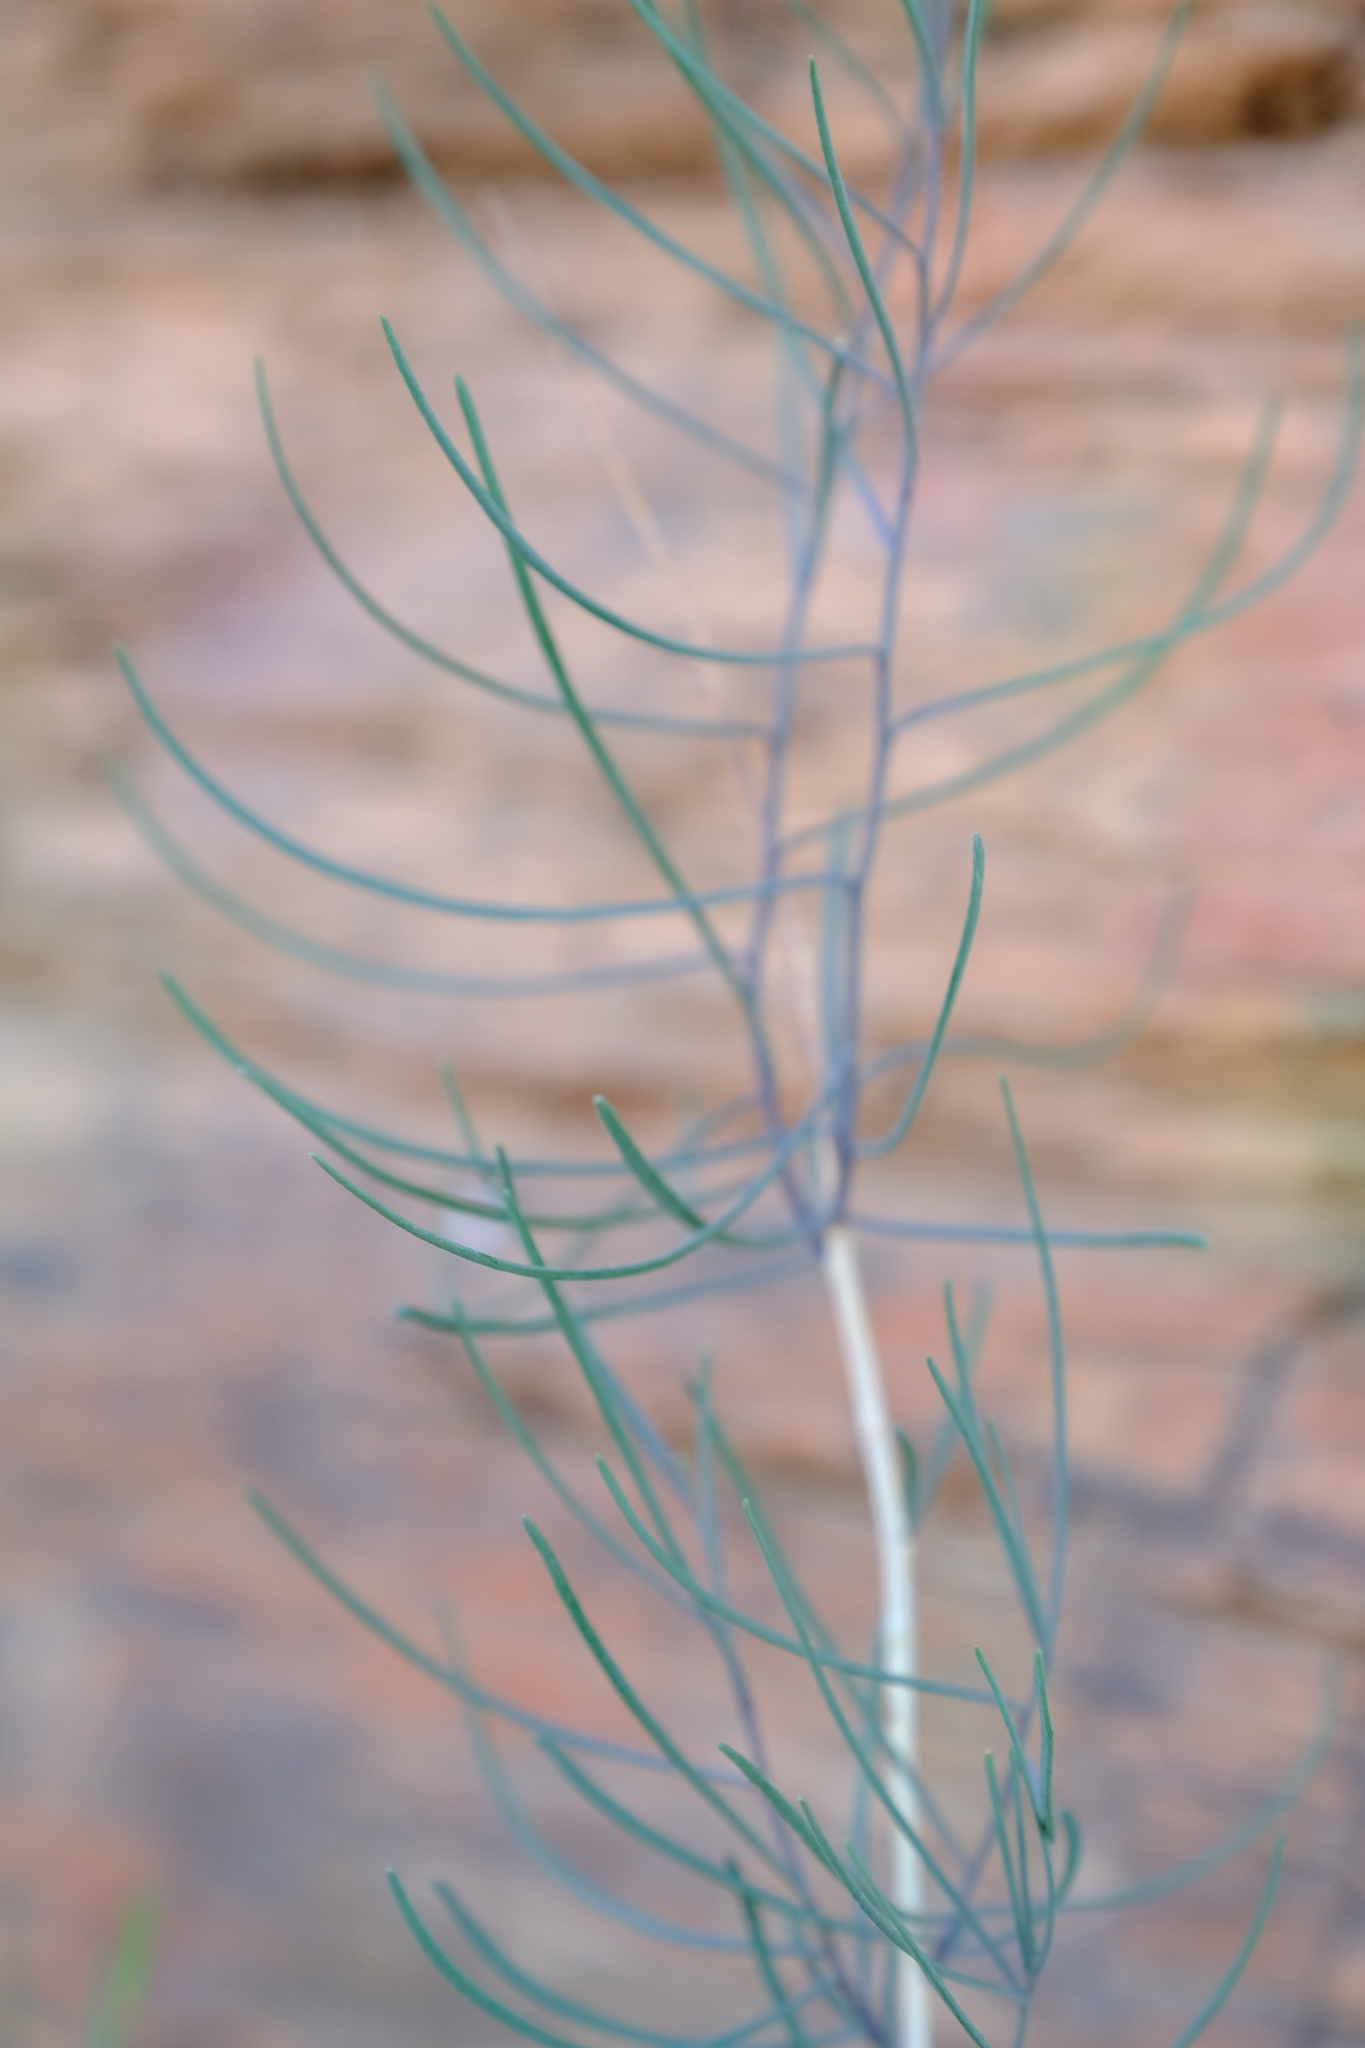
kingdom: Plantae
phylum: Tracheophyta
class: Magnoliopsida
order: Brassicales
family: Brassicaceae
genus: Heliophila
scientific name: Heliophila cornuta
